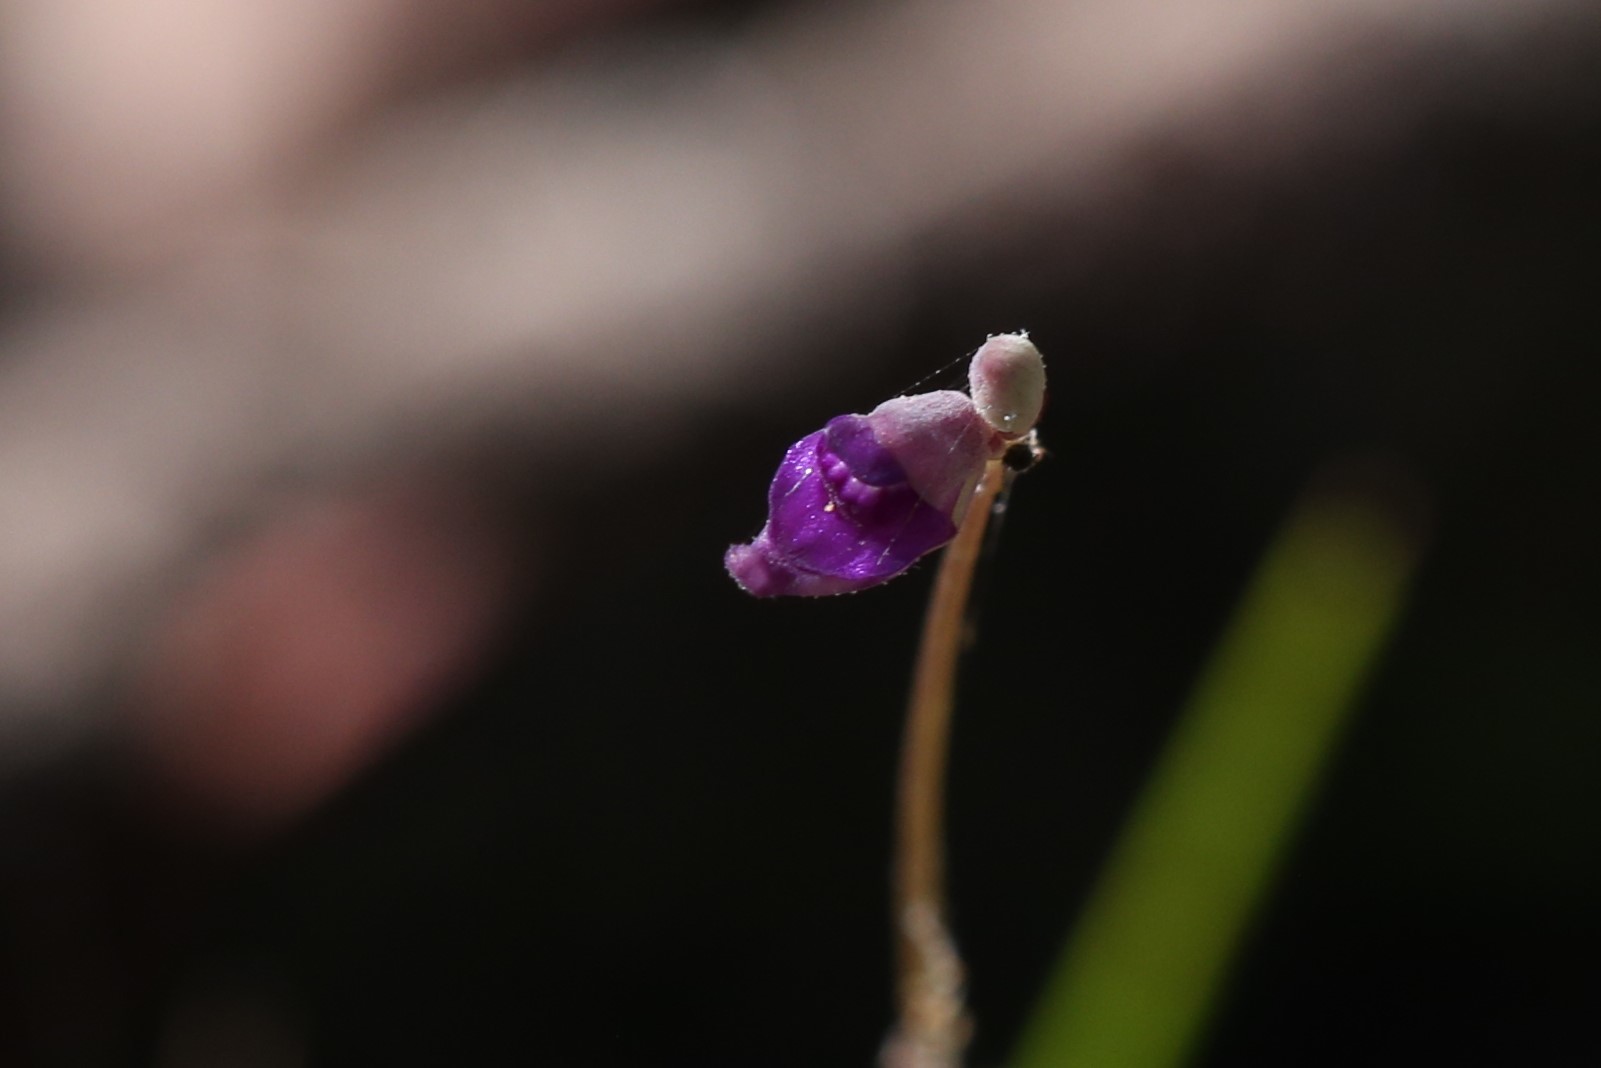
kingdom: Plantae
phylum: Tracheophyta
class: Magnoliopsida
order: Lamiales
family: Lentibulariaceae
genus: Utricularia
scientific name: Utricularia caerulea
